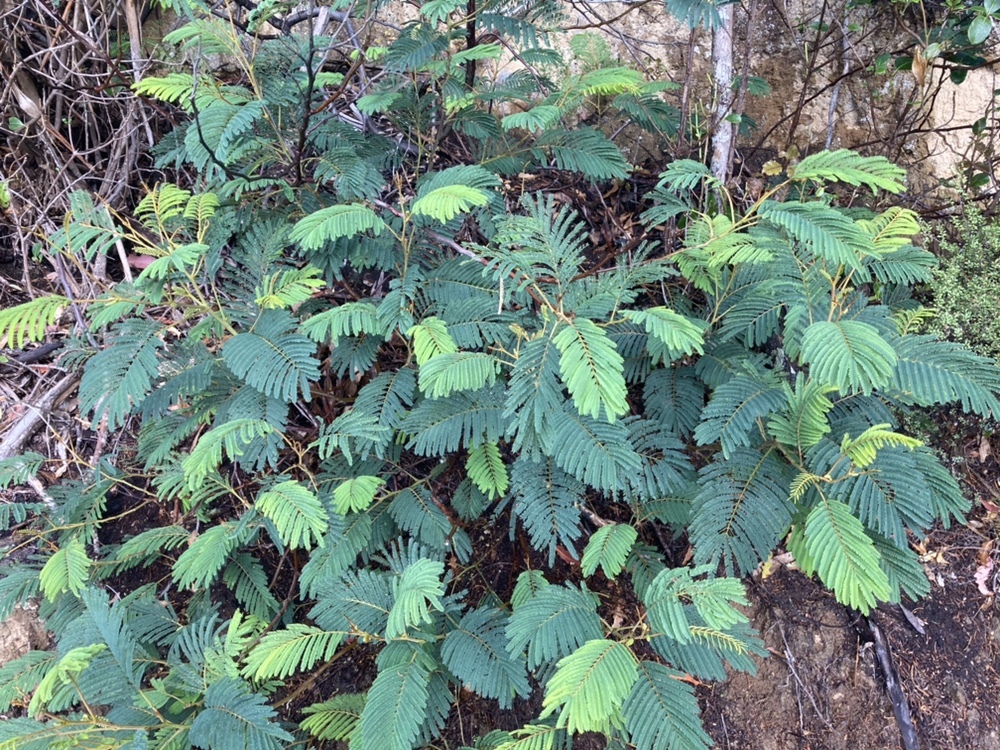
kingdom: Plantae
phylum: Tracheophyta
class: Magnoliopsida
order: Fabales
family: Fabaceae
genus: Paraserianthes
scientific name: Paraserianthes lophantha
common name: Plume albizia
